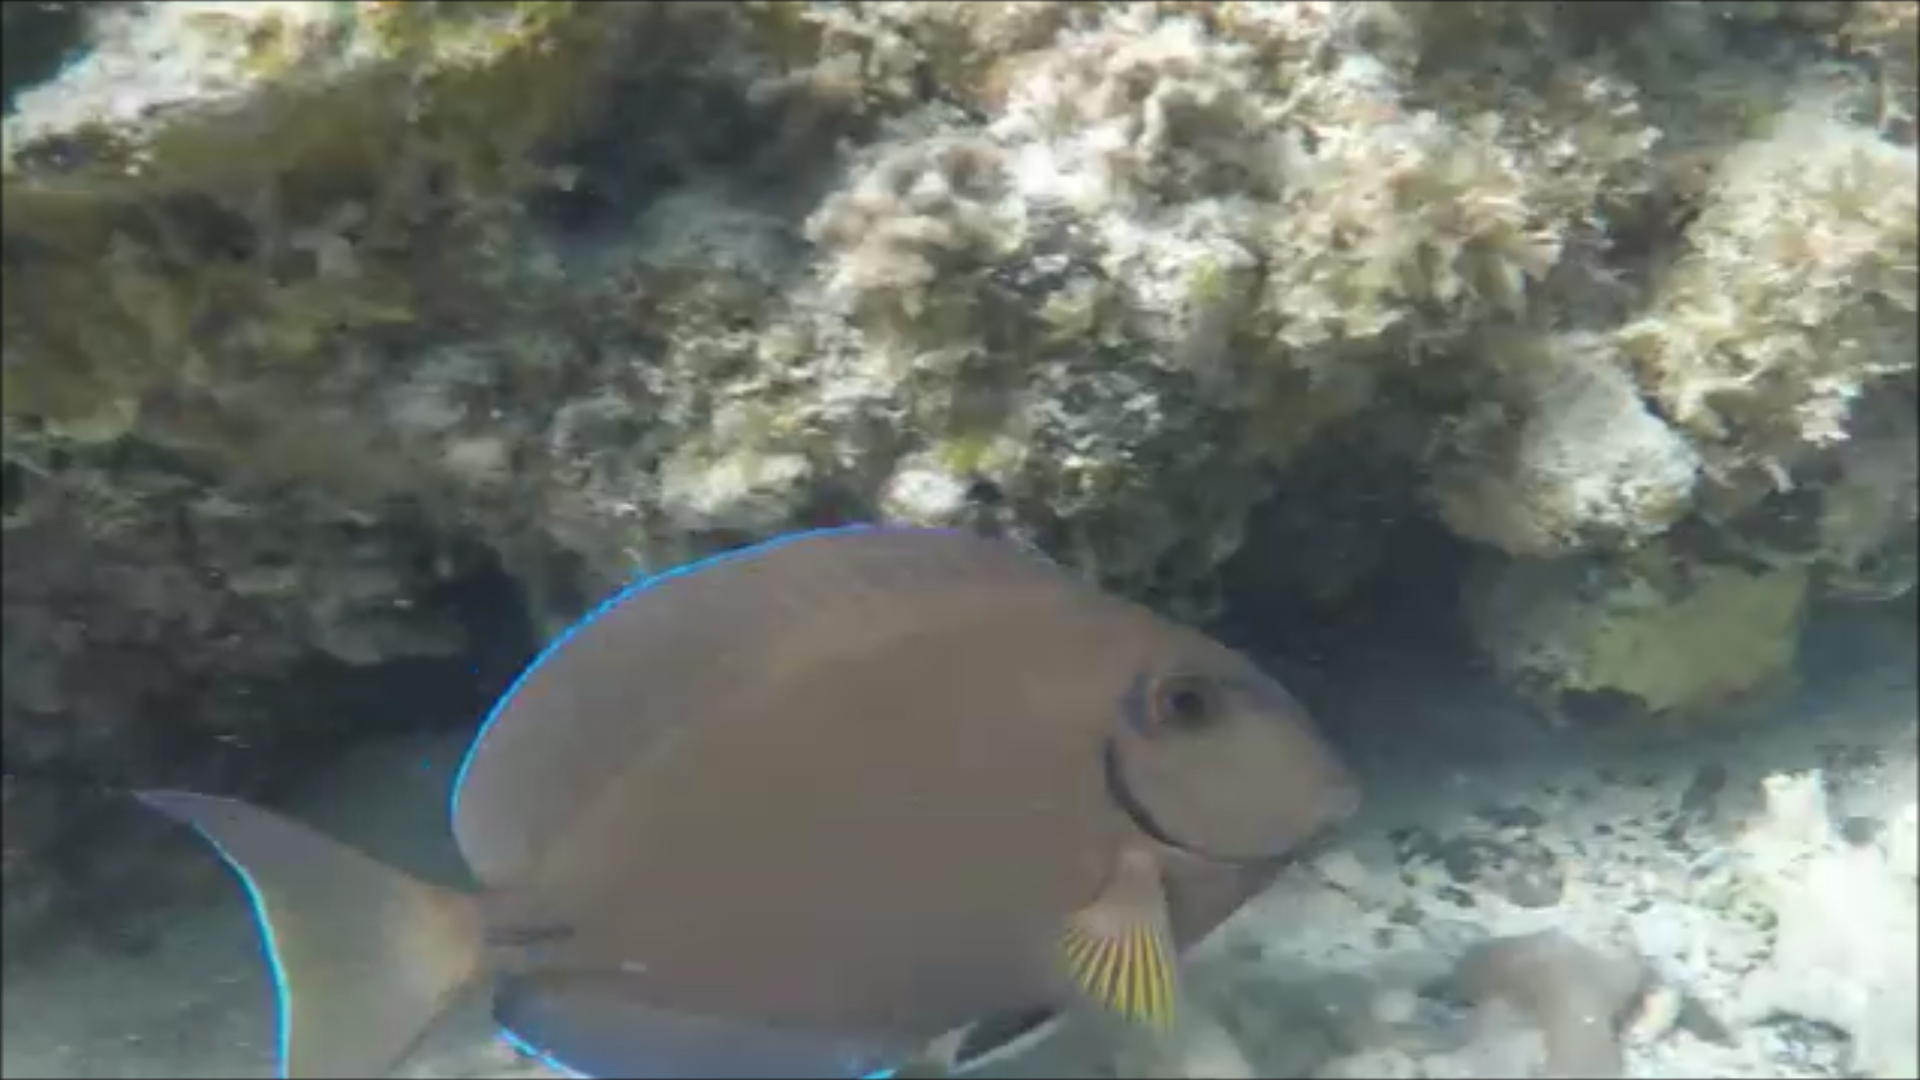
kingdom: Animalia
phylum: Chordata
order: Perciformes
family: Acanthuridae
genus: Acanthurus
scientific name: Acanthurus bahianus
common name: Ocean surgeon
